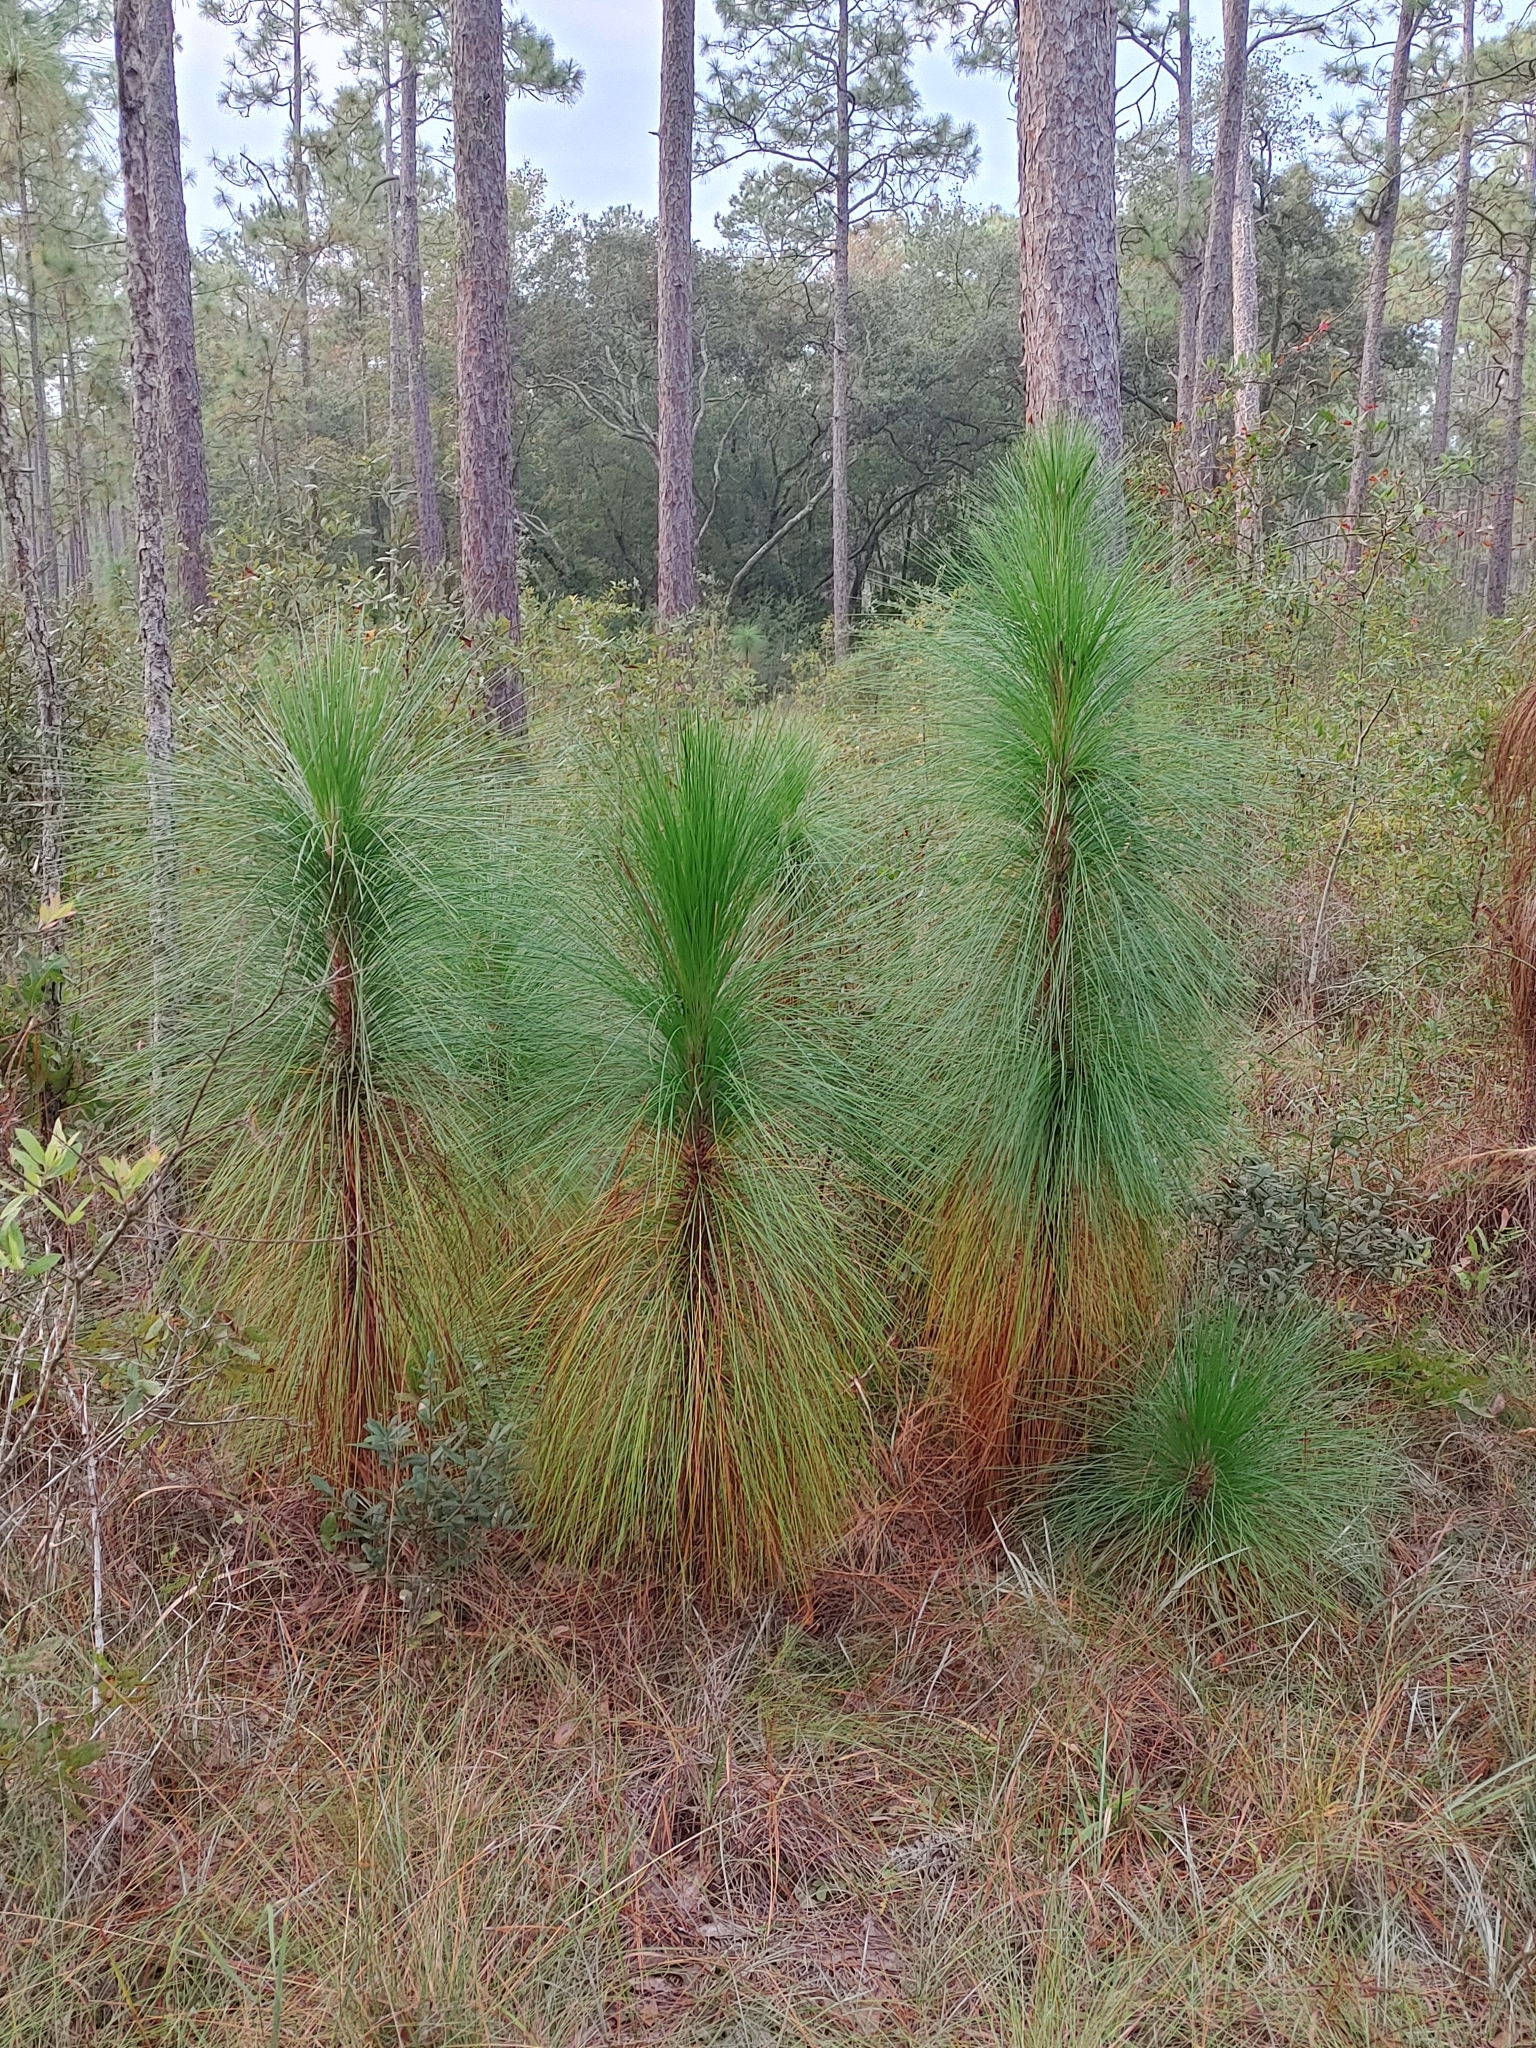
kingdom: Plantae
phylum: Tracheophyta
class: Pinopsida
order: Pinales
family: Pinaceae
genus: Pinus
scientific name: Pinus palustris
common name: Longleaf pine
